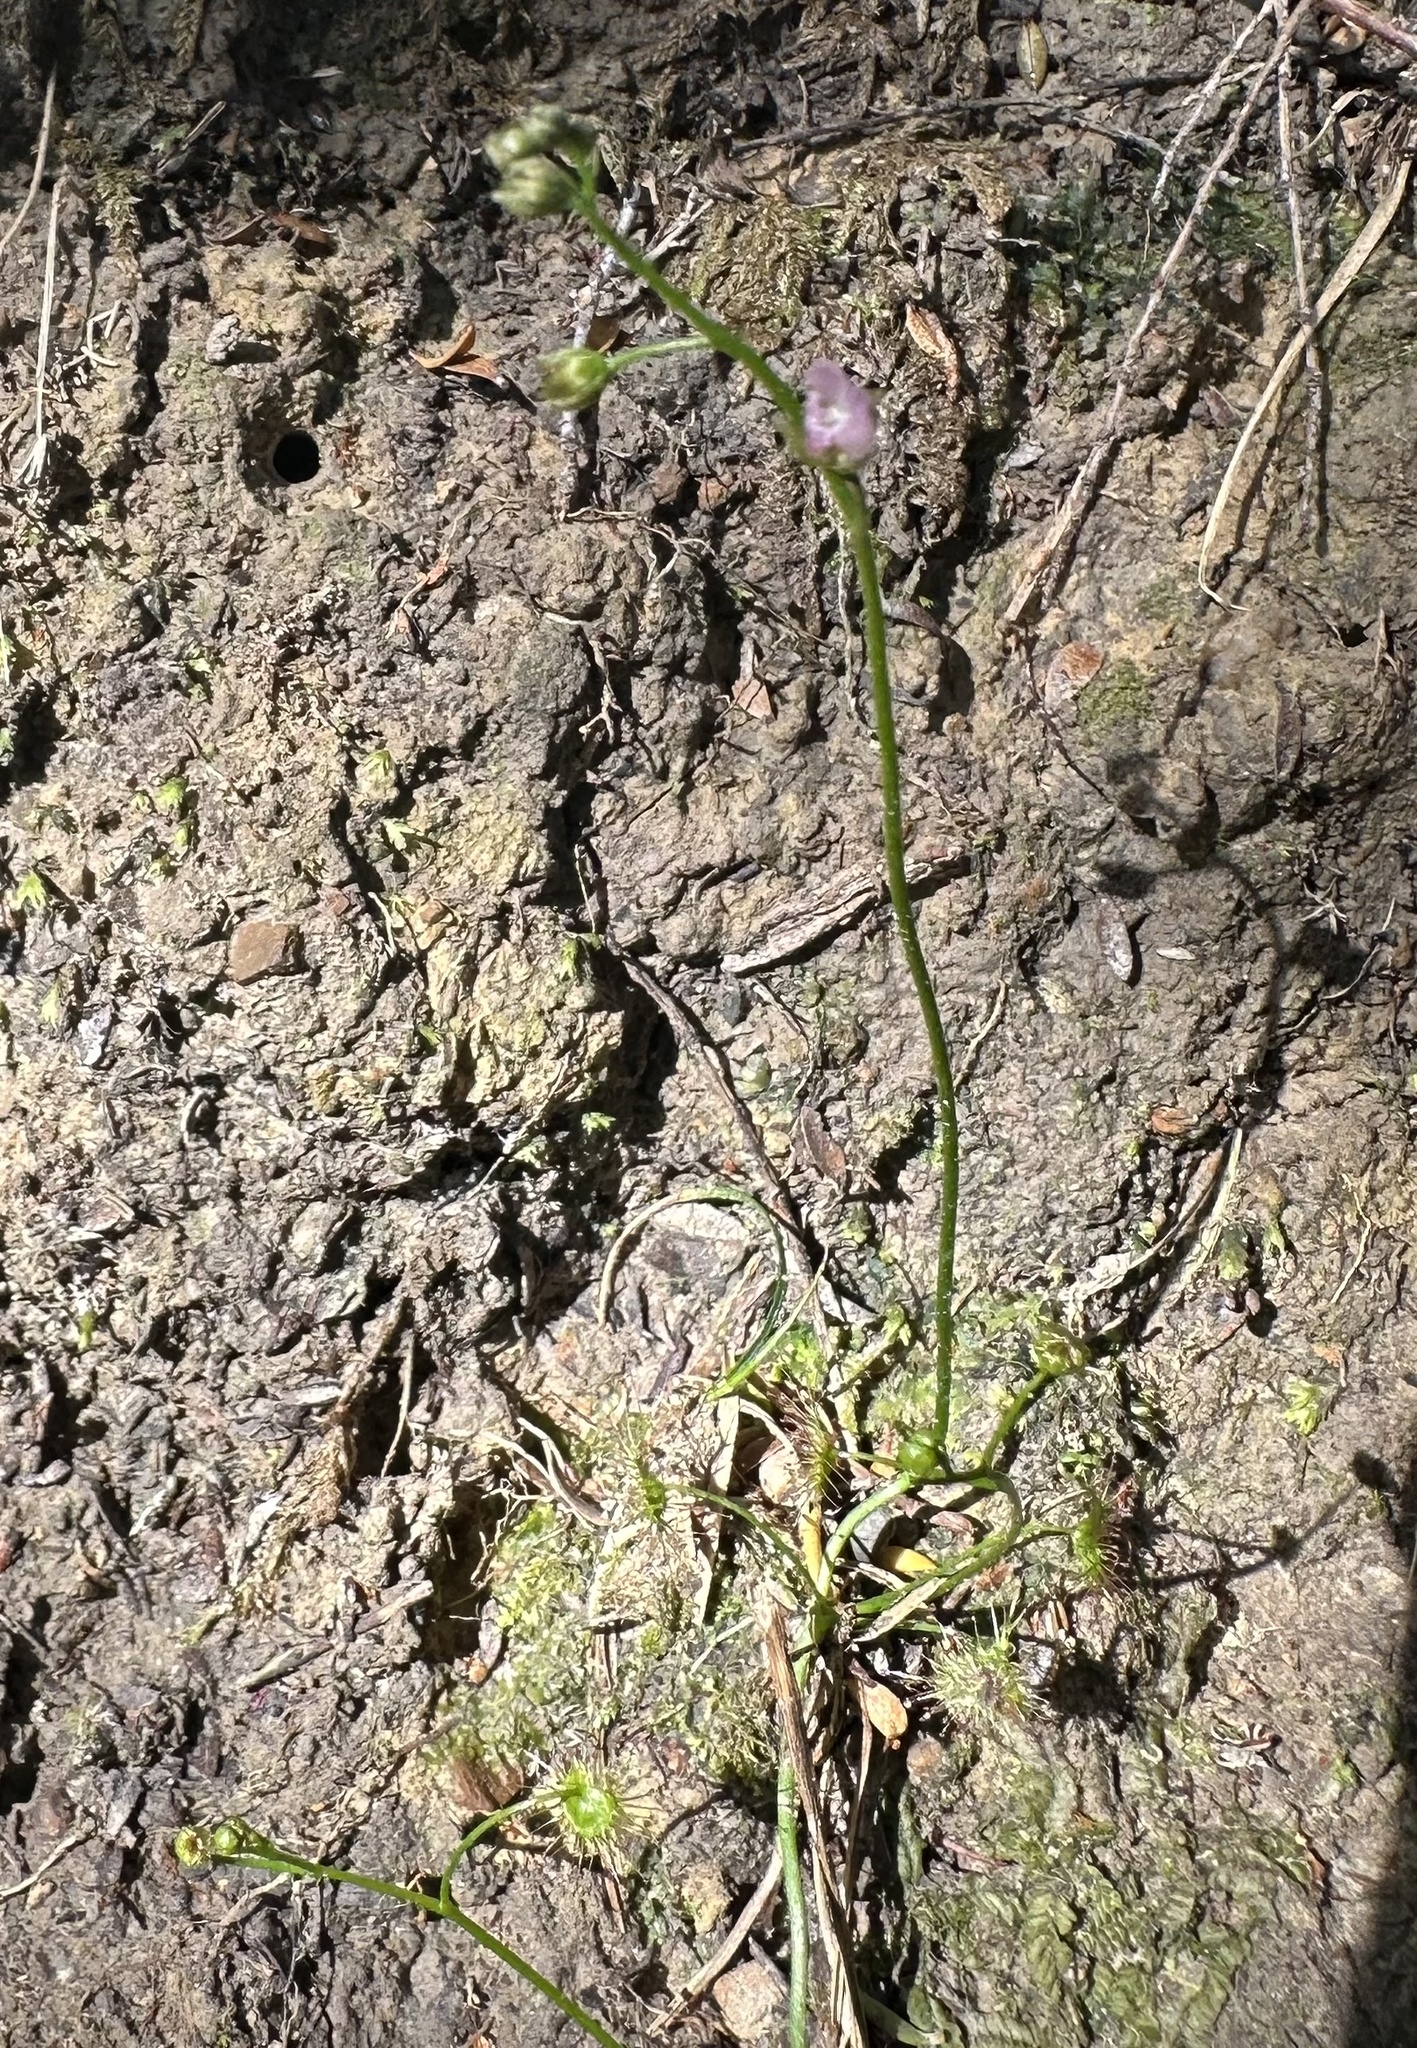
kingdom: Plantae
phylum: Tracheophyta
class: Magnoliopsida
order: Caryophyllales
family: Droseraceae
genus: Drosera
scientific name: Drosera peltata
